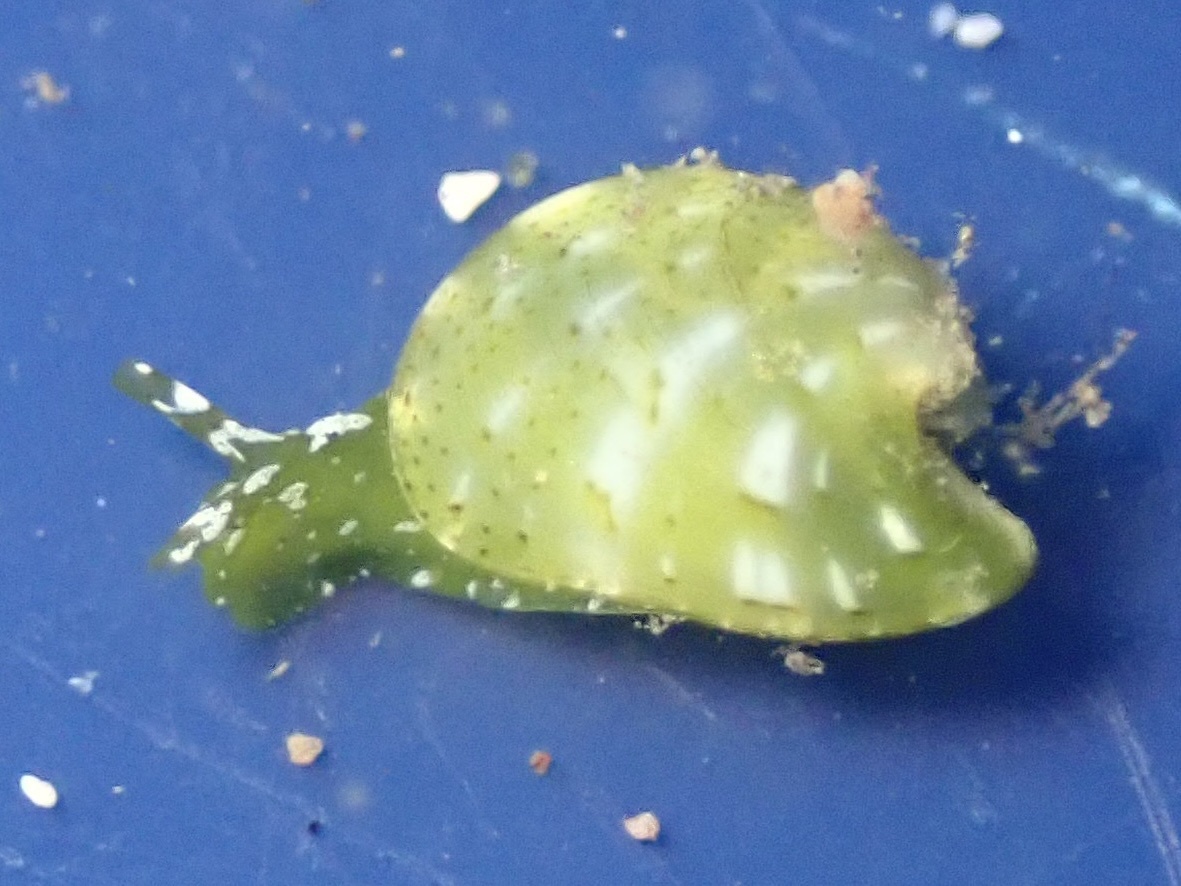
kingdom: Animalia
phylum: Mollusca
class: Gastropoda
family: Juliidae
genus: Julia
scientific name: Julia exquisita
